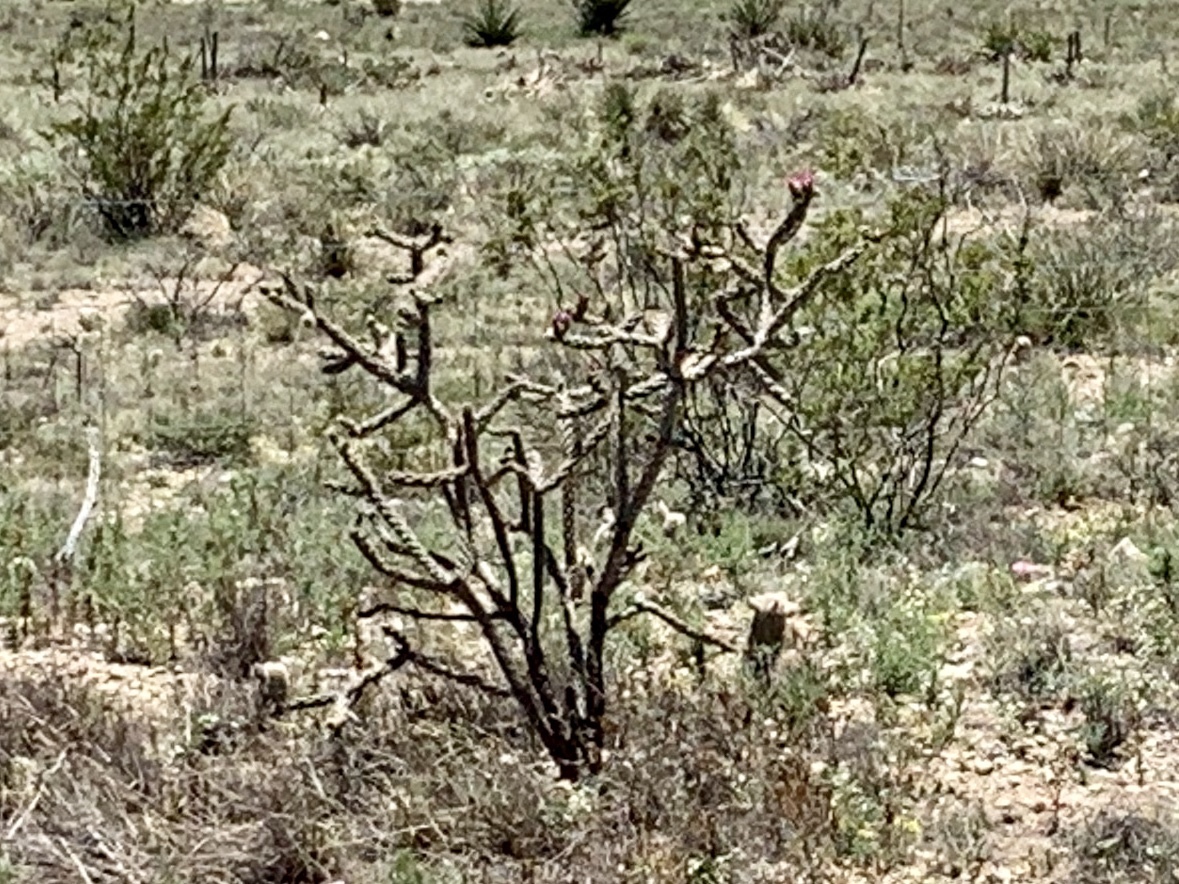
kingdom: Plantae
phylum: Tracheophyta
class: Magnoliopsida
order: Caryophyllales
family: Cactaceae
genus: Cylindropuntia
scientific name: Cylindropuntia imbricata
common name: Candelabrum cactus
